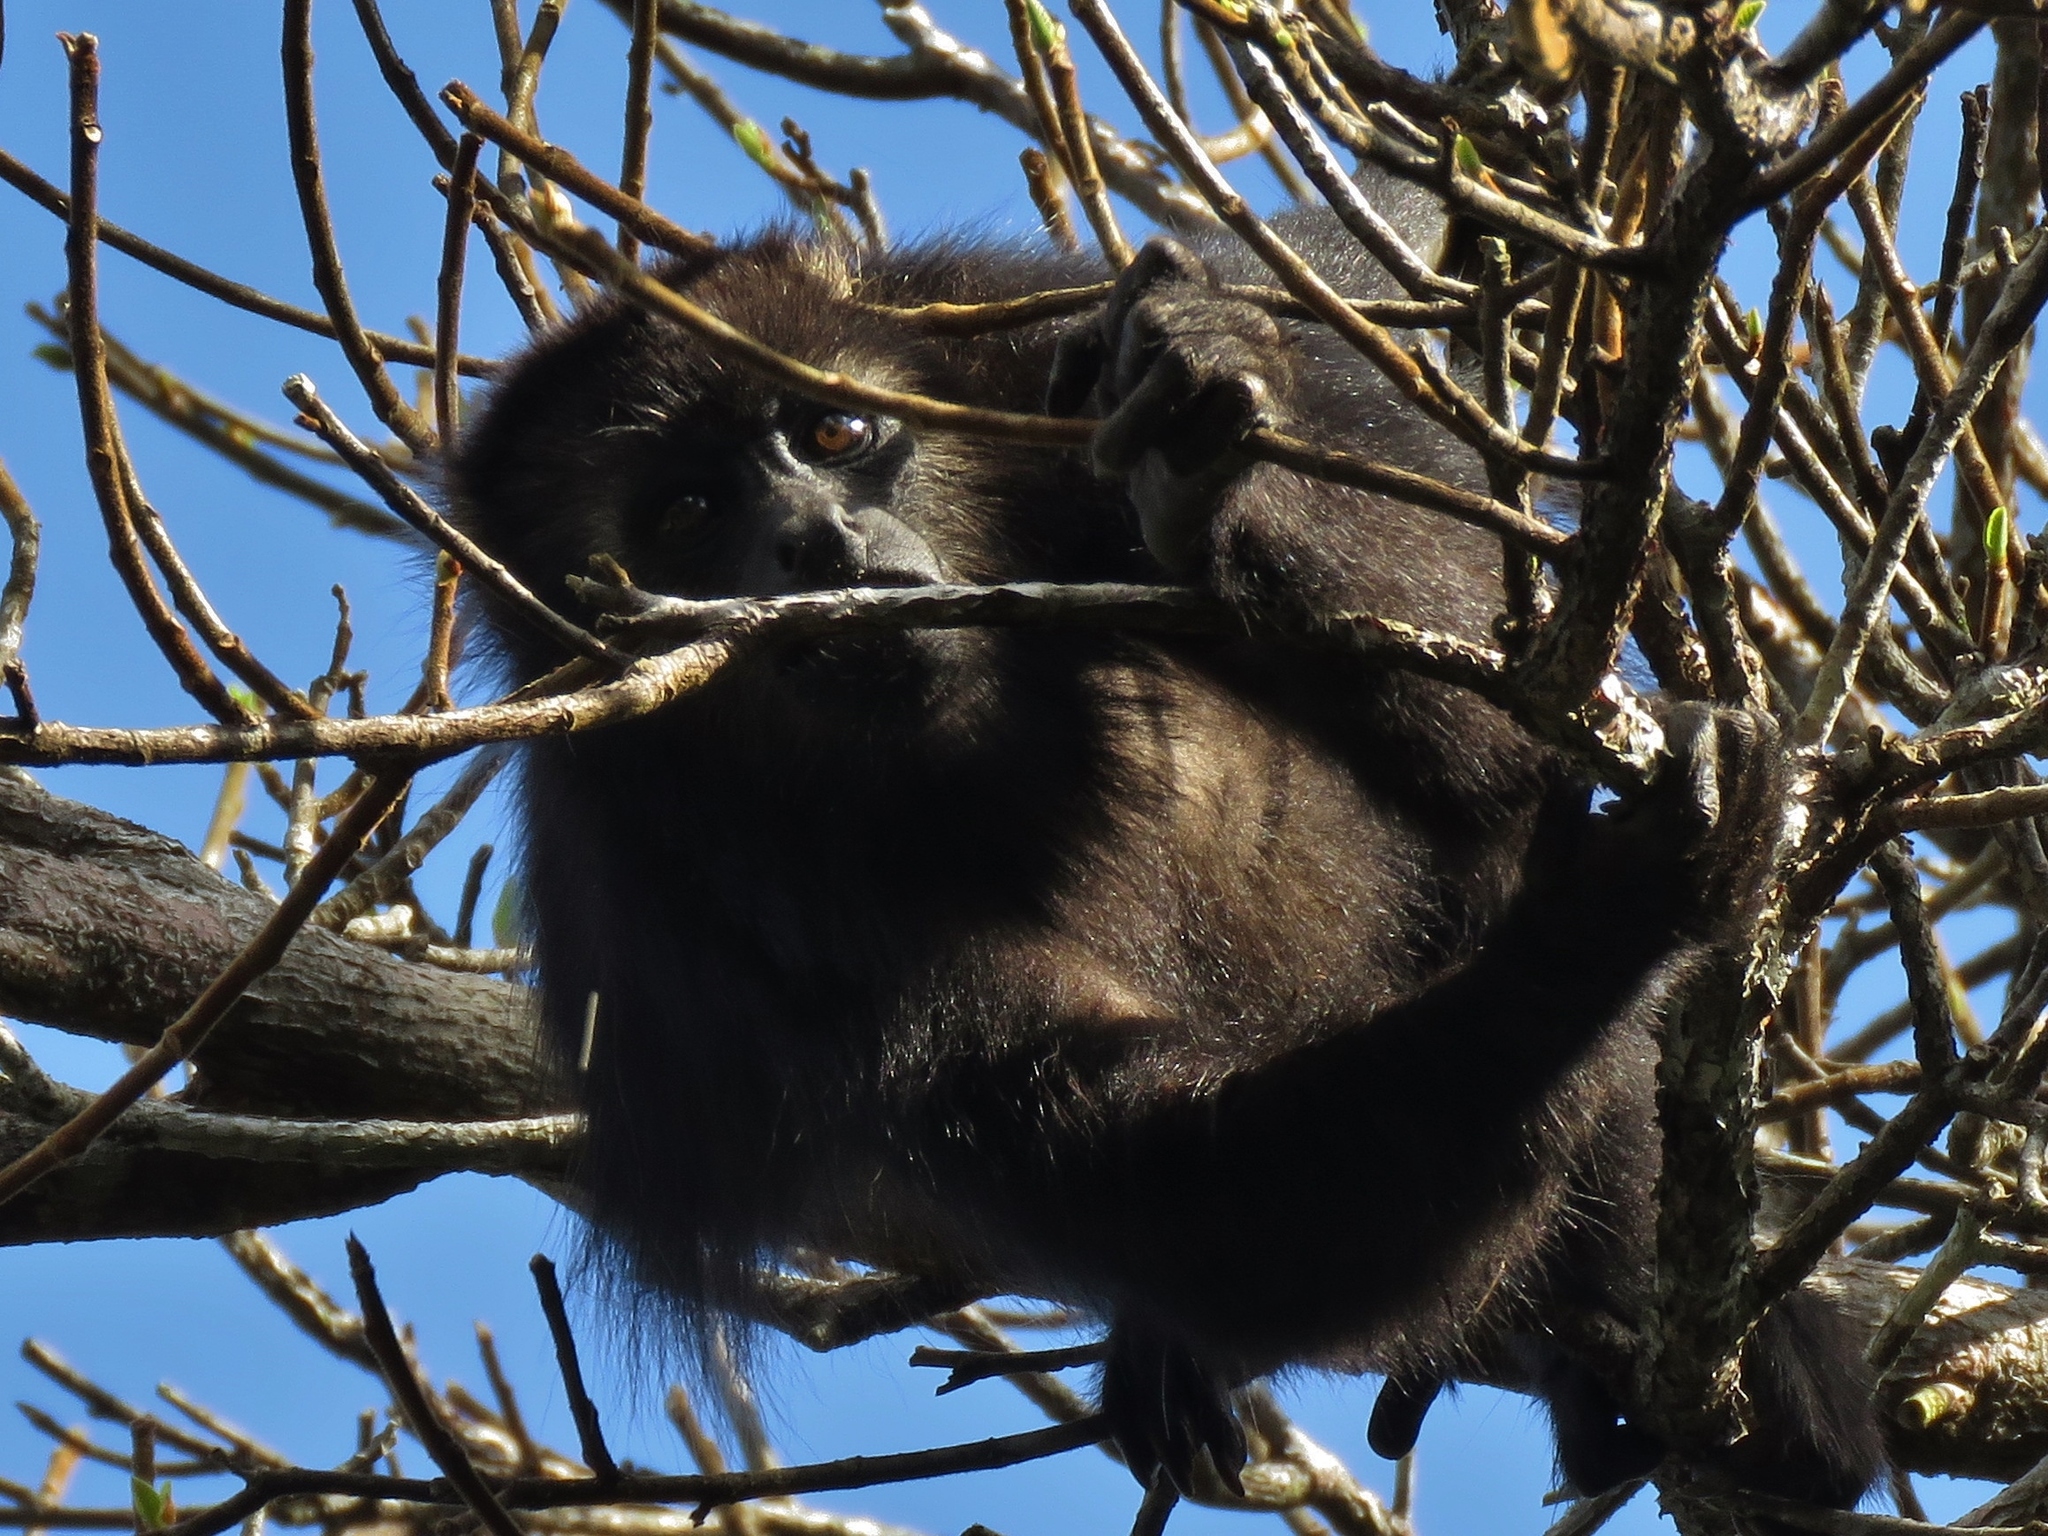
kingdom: Animalia
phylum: Chordata
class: Mammalia
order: Primates
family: Atelidae
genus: Alouatta
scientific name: Alouatta pigra
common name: Guatemalan black howler
